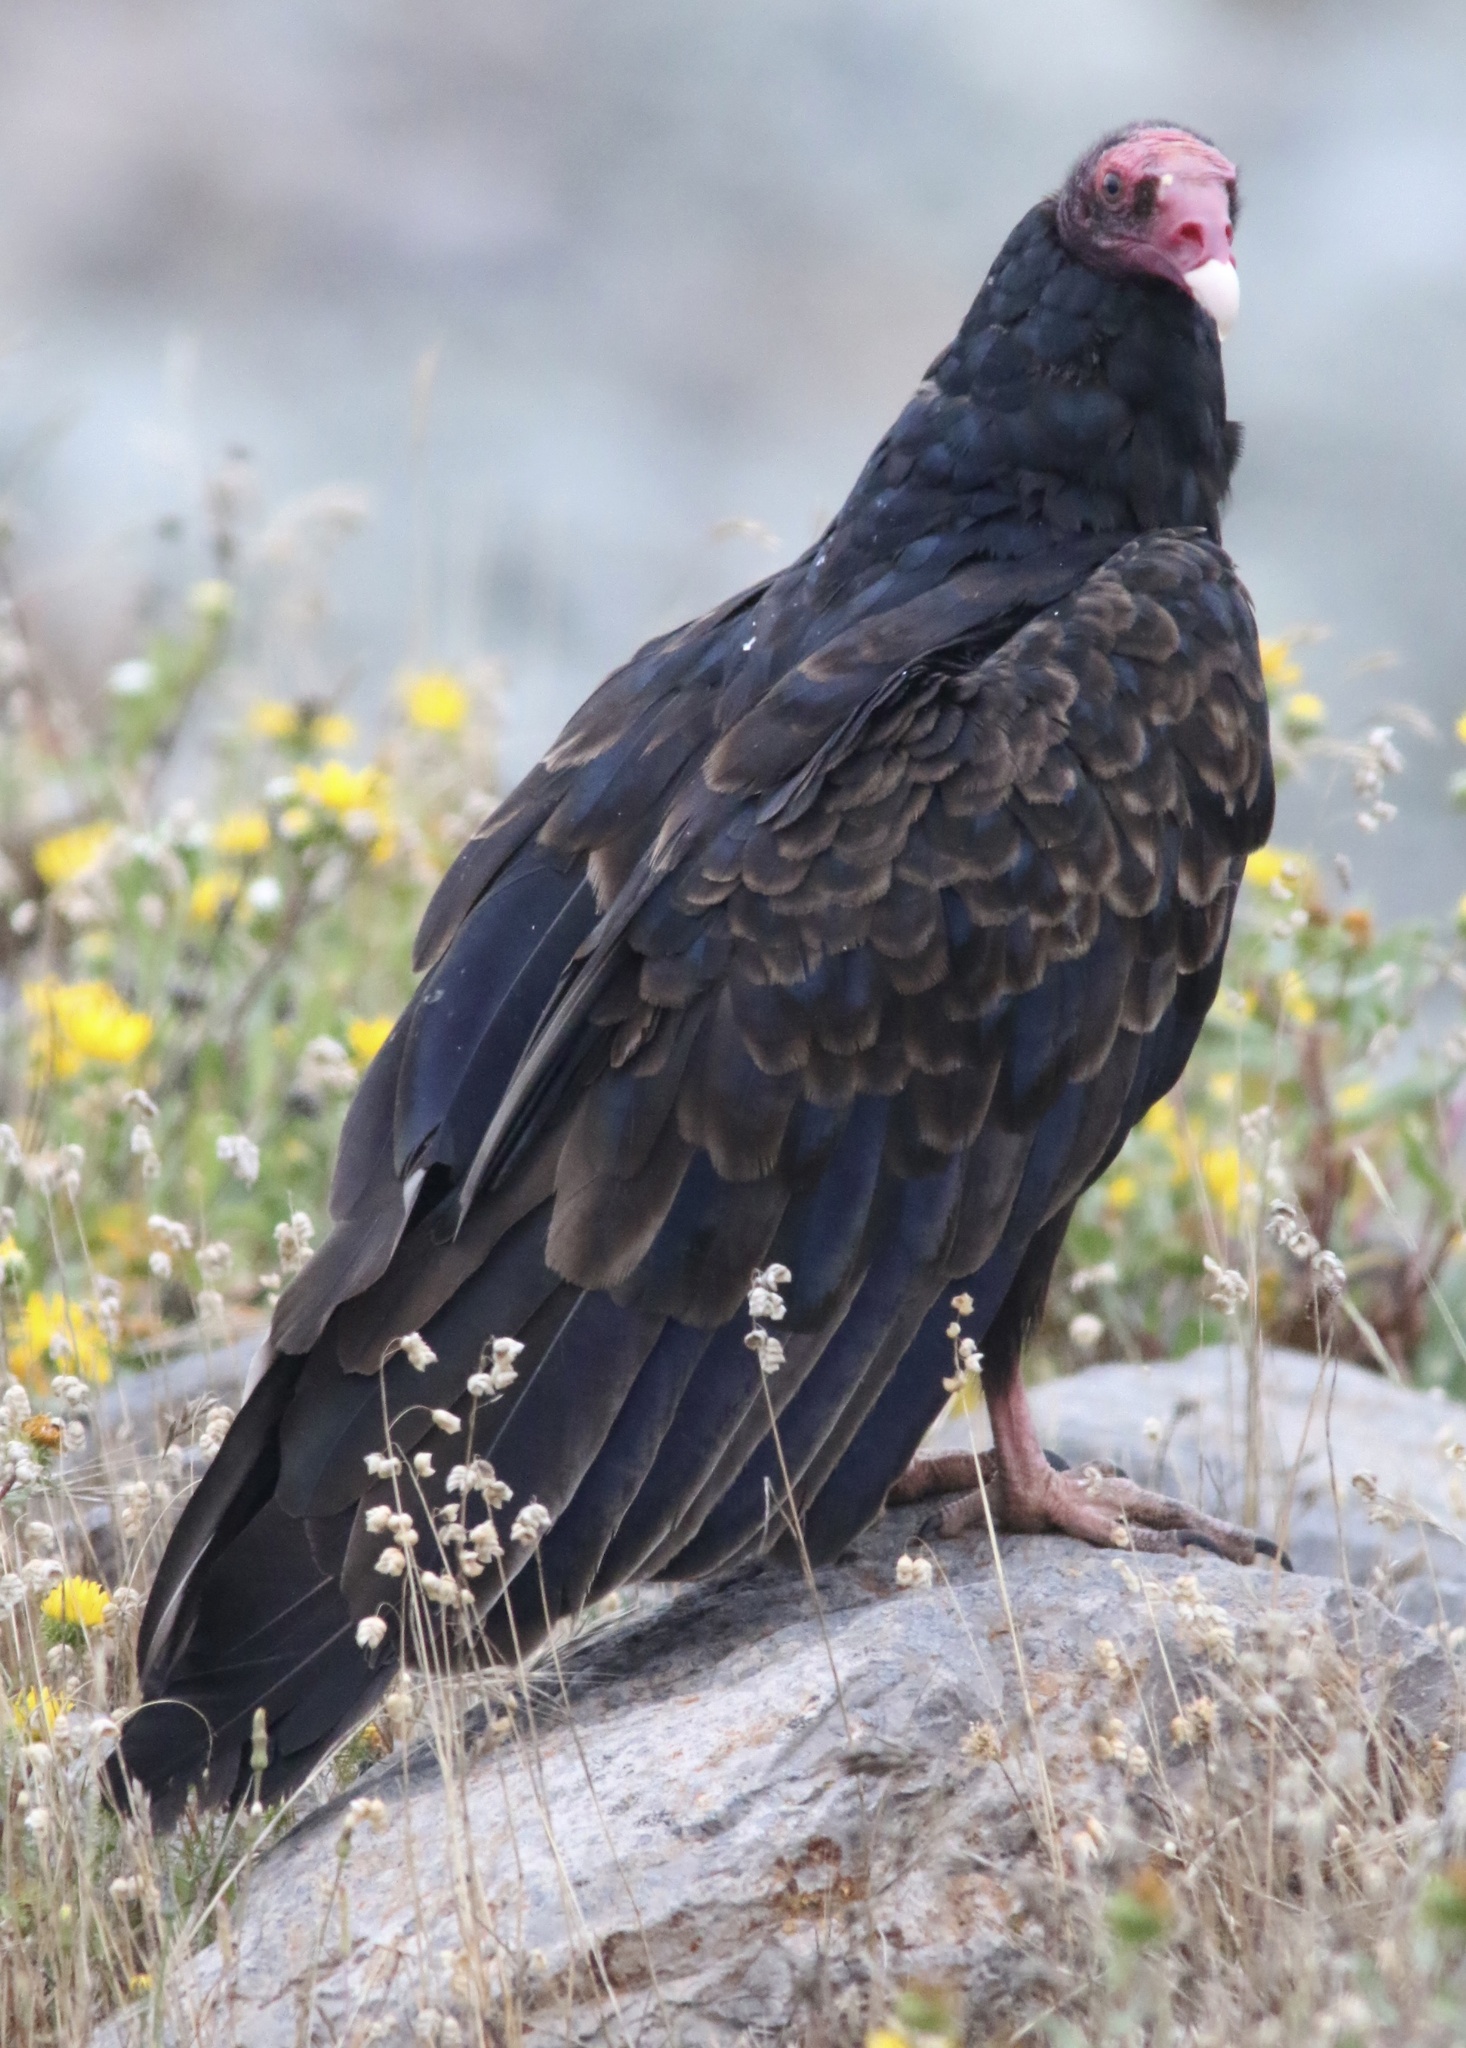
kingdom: Animalia
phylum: Chordata
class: Aves
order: Accipitriformes
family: Cathartidae
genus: Cathartes
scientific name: Cathartes aura
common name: Turkey vulture
